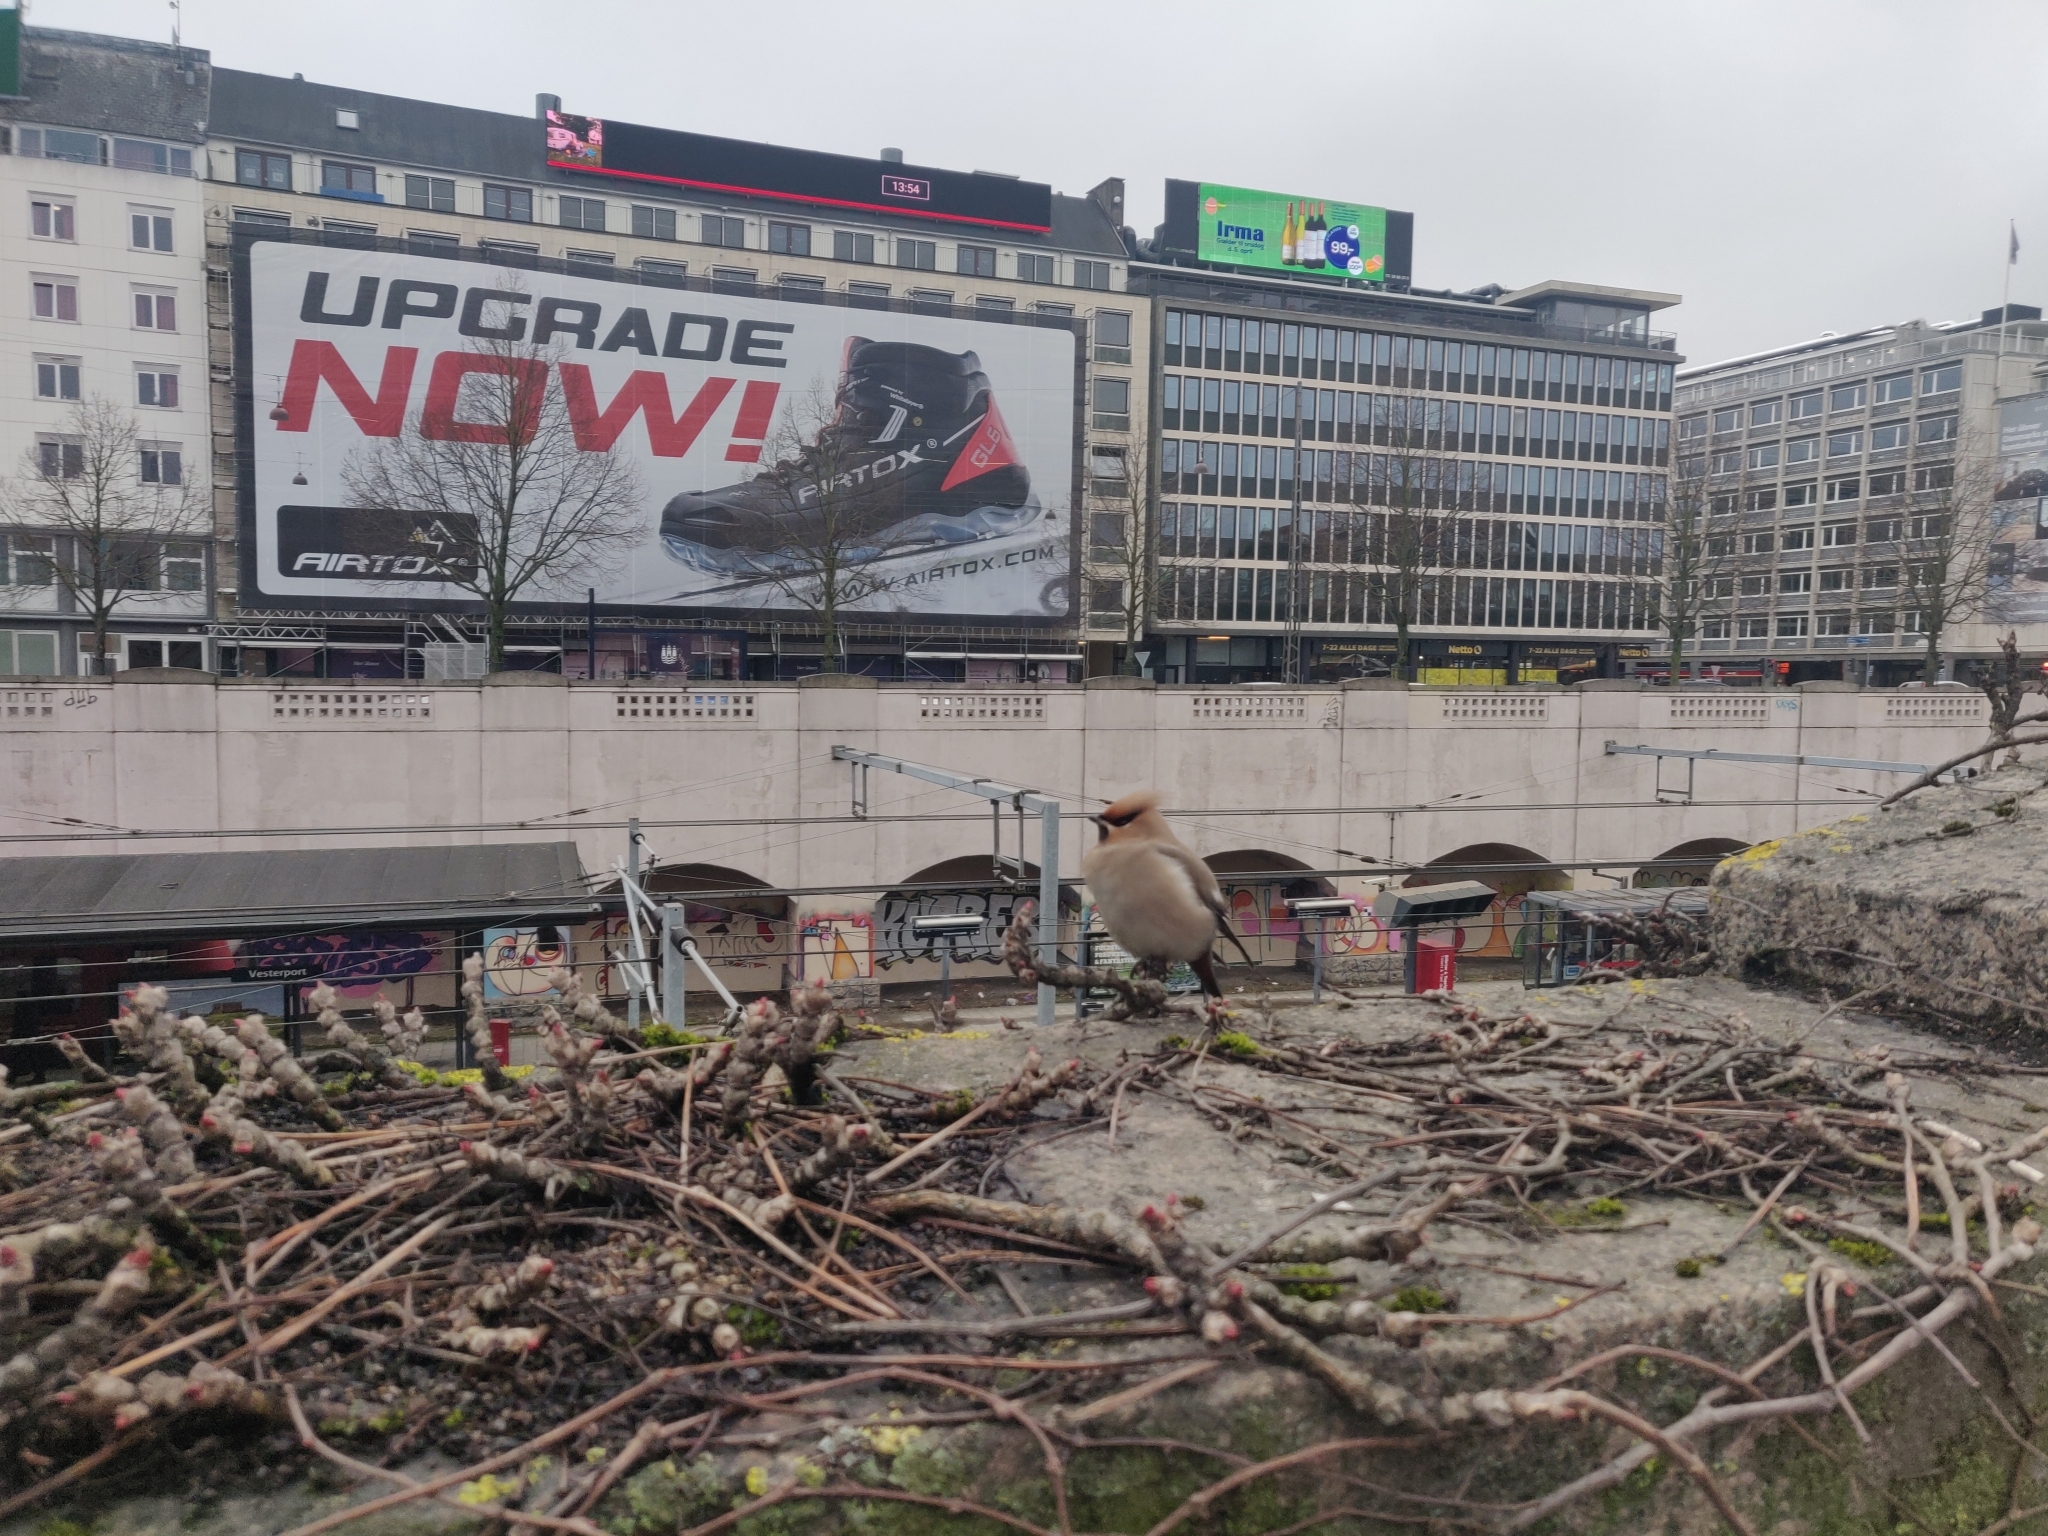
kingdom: Animalia
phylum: Chordata
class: Aves
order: Passeriformes
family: Bombycillidae
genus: Bombycilla
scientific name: Bombycilla garrulus
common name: Bohemian waxwing
